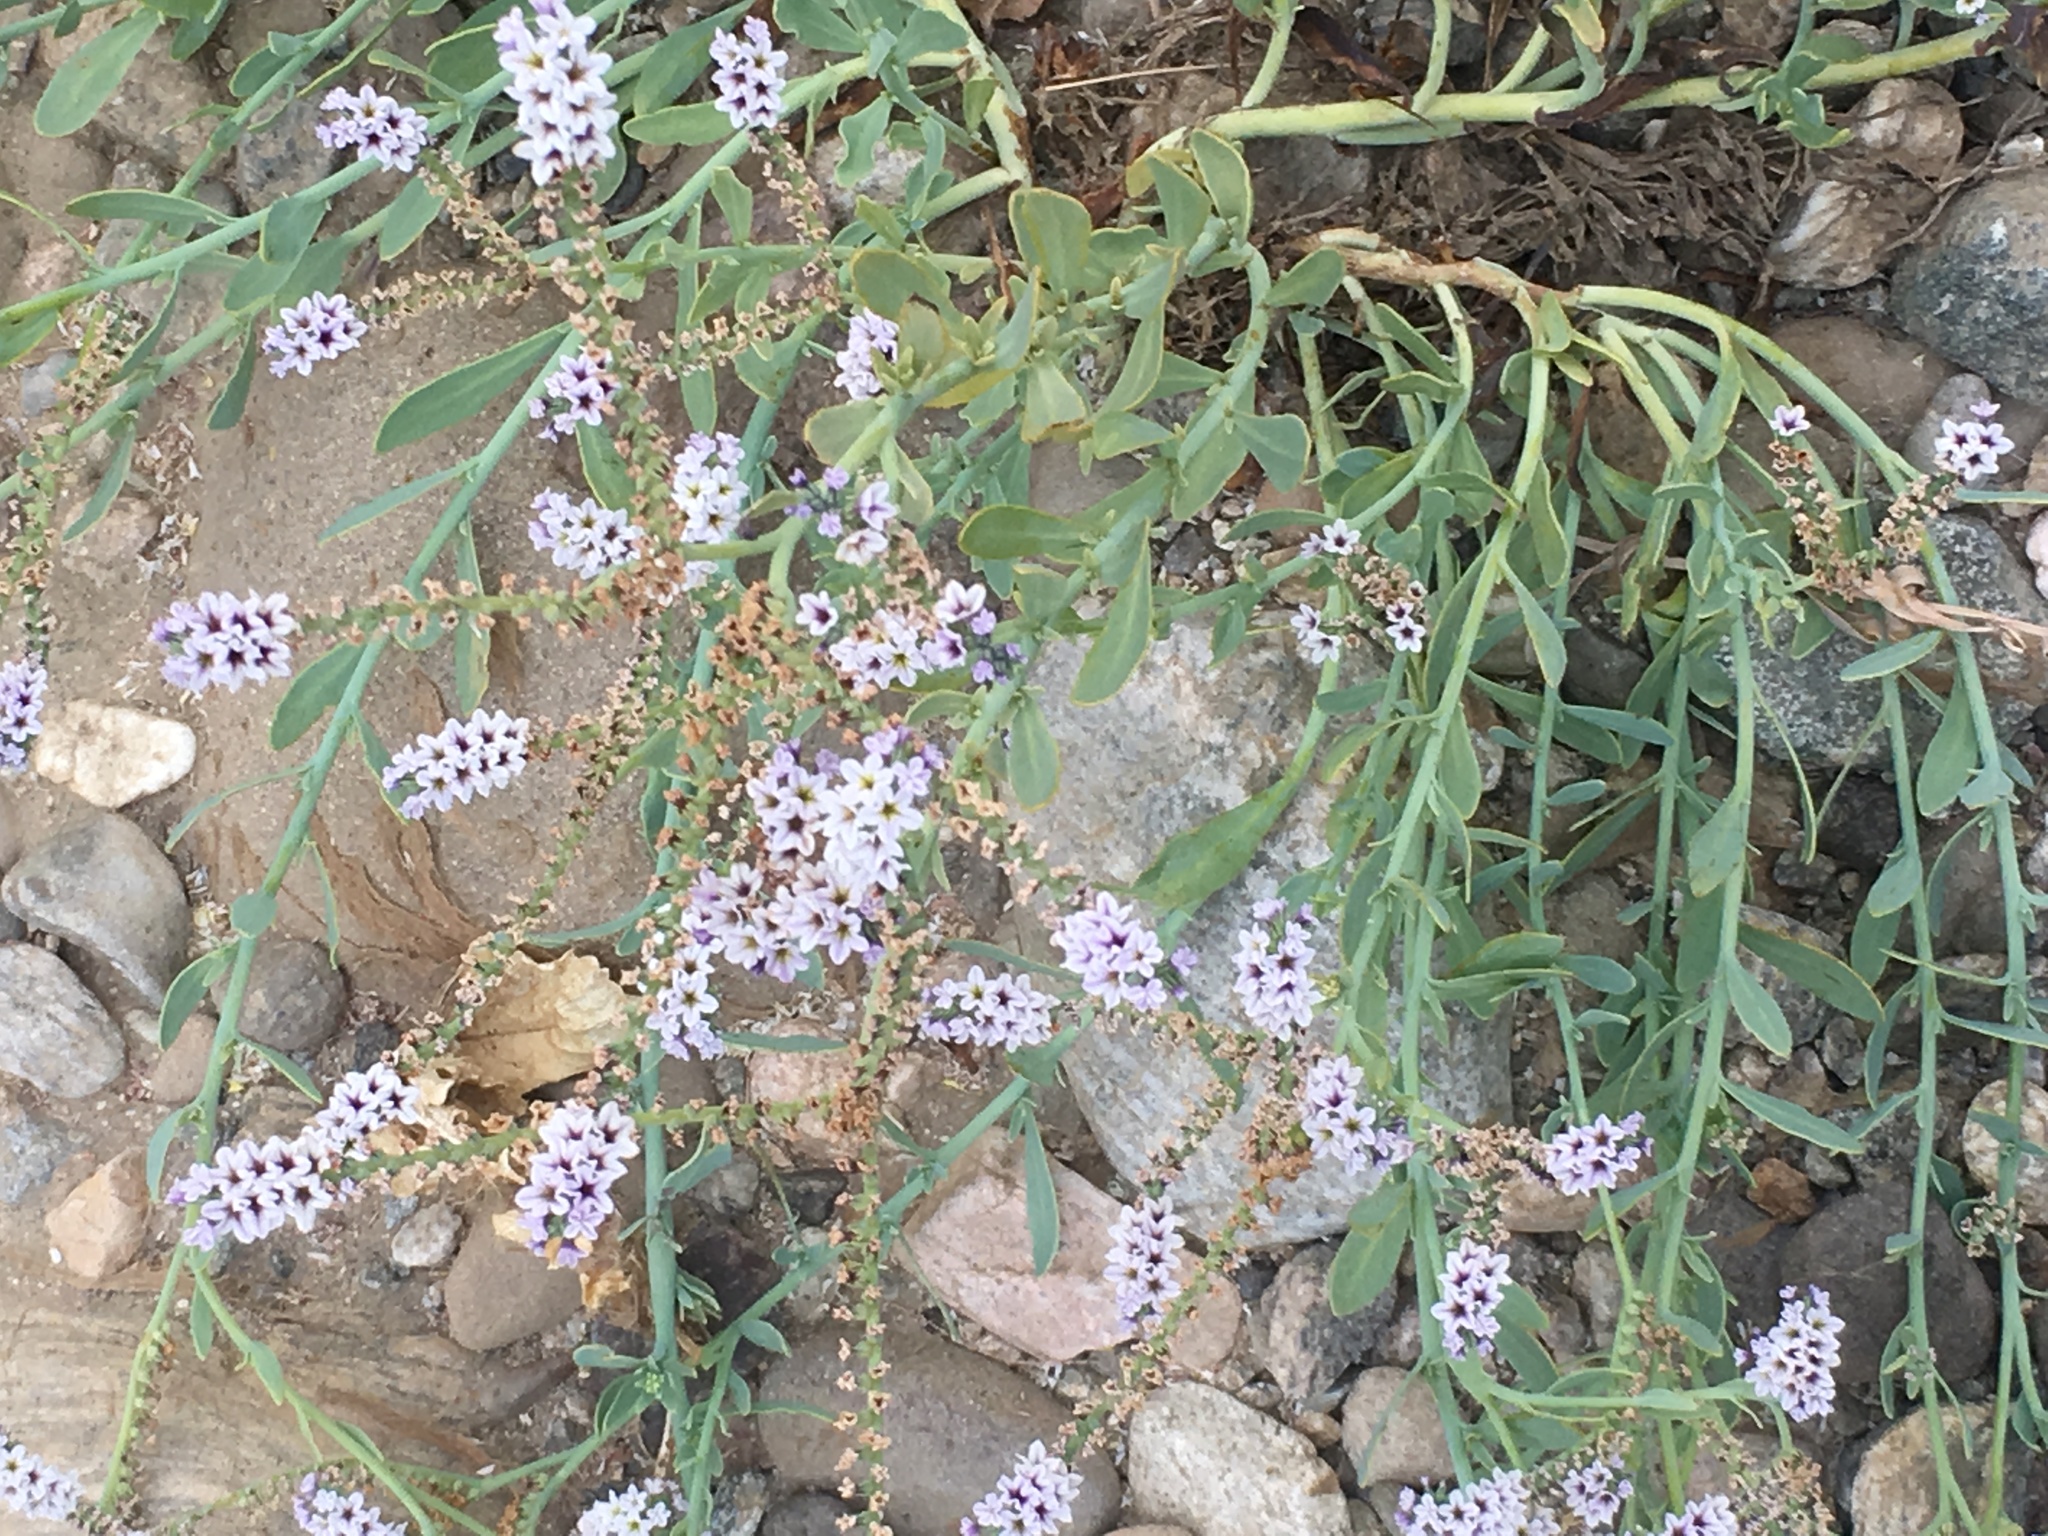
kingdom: Plantae
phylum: Tracheophyta
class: Magnoliopsida
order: Boraginales
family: Heliotropiaceae
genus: Heliotropium
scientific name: Heliotropium curassavicum
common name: Seaside heliotrope
